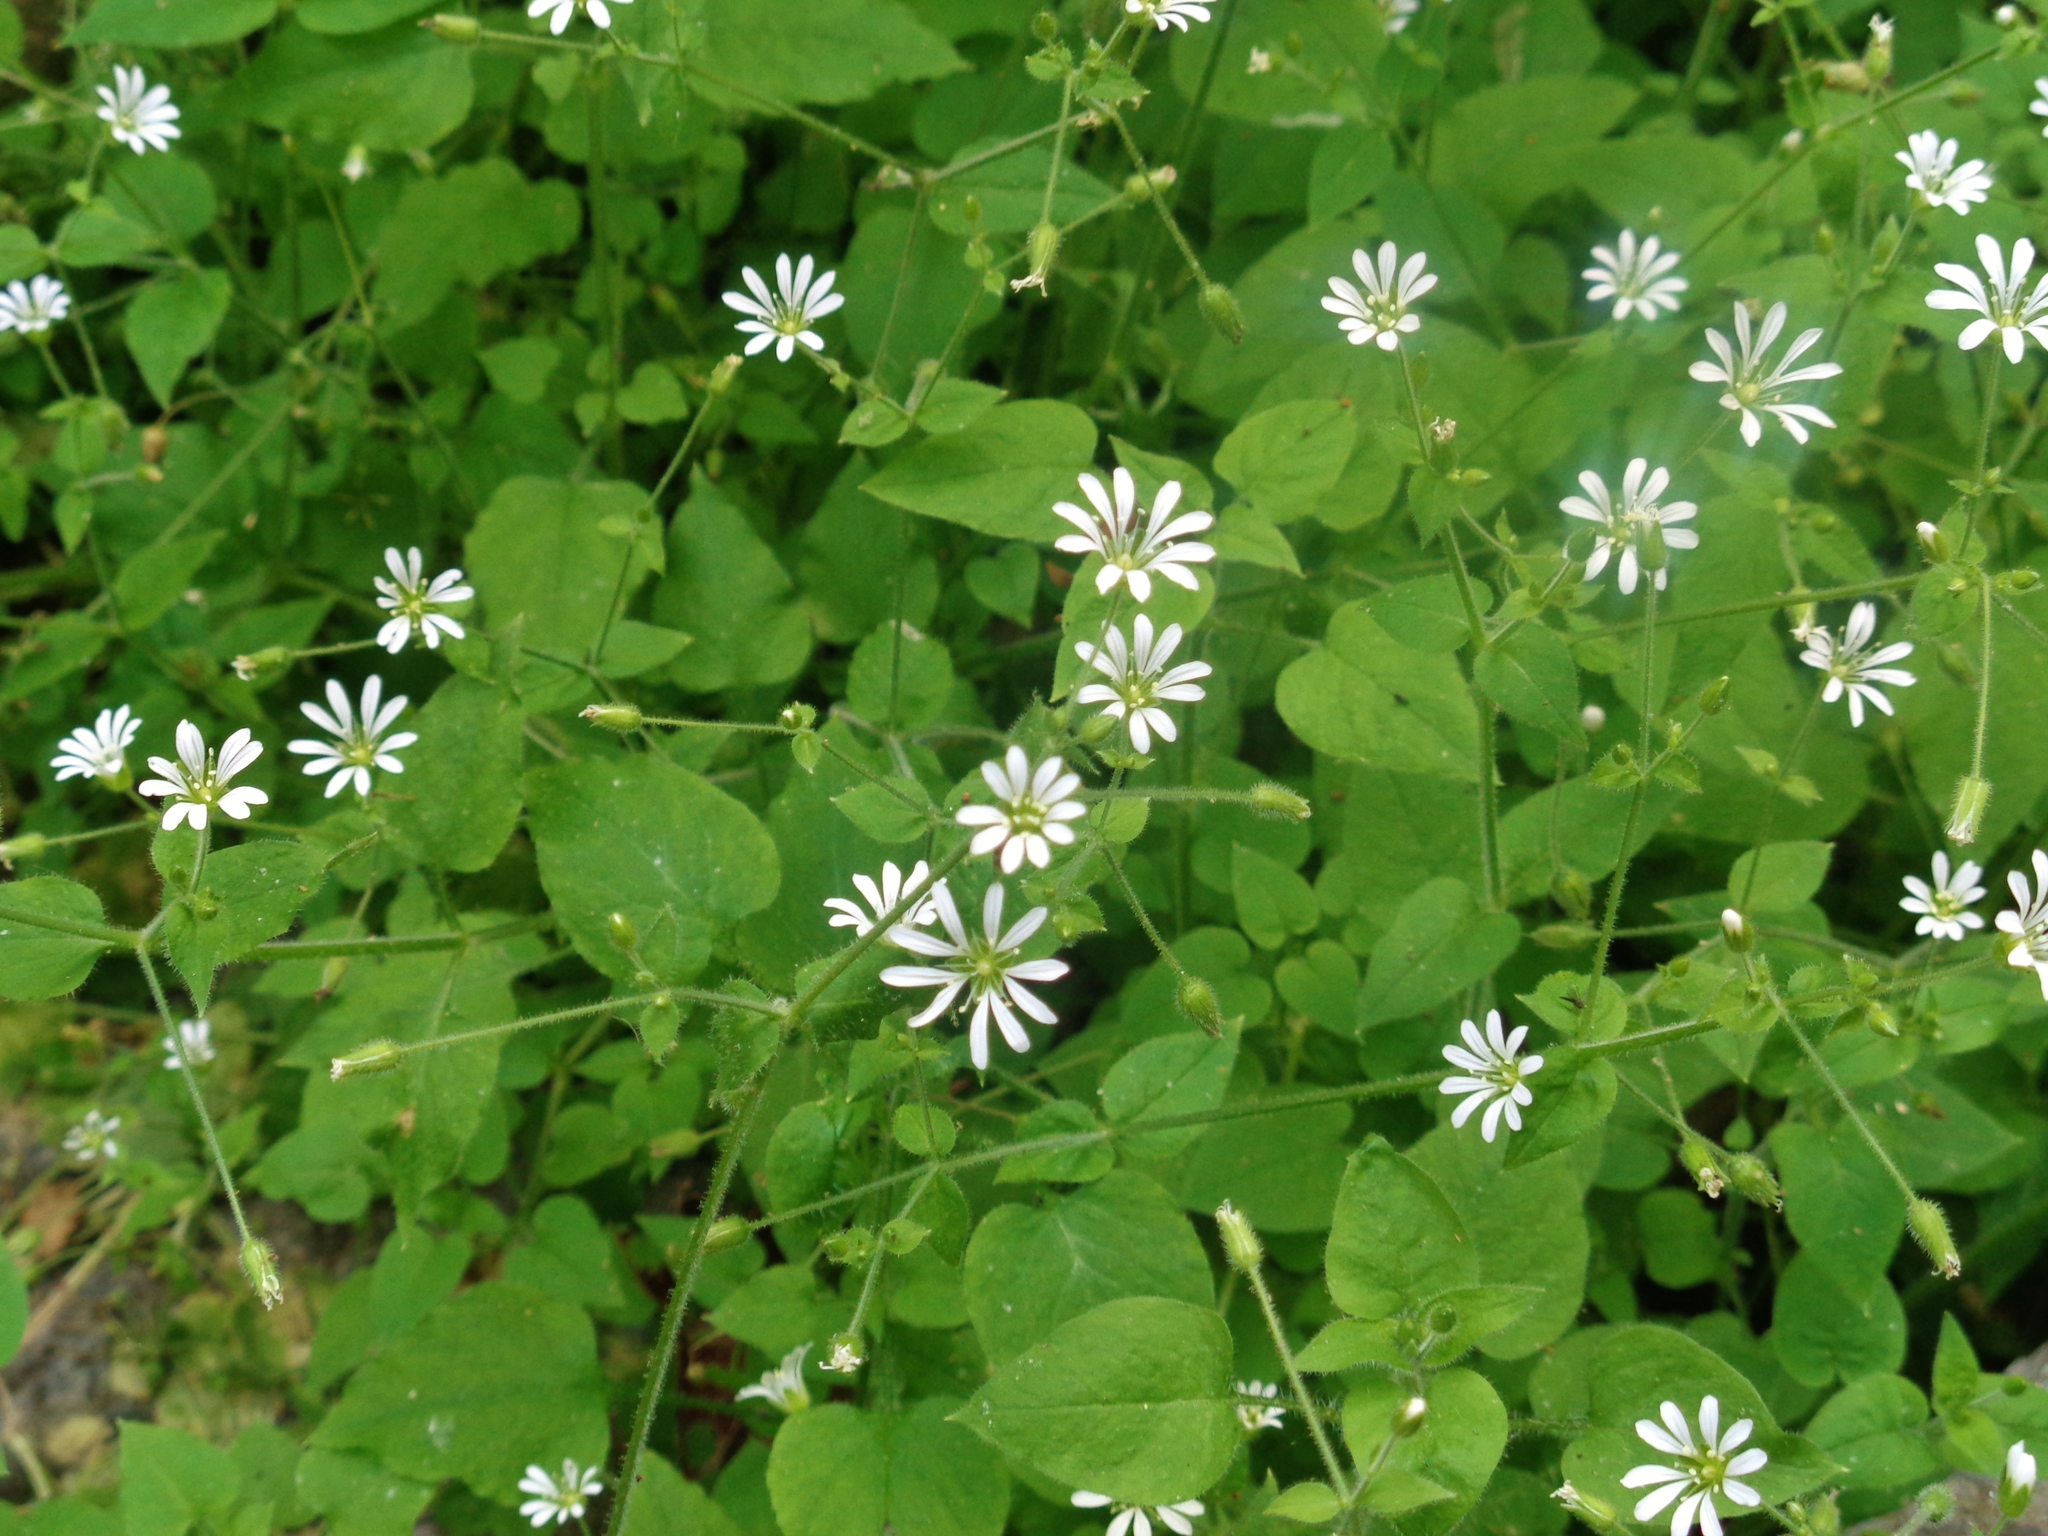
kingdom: Plantae
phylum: Tracheophyta
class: Magnoliopsida
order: Caryophyllales
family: Caryophyllaceae
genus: Stellaria
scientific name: Stellaria cuspidata
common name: Mexican chickweed
